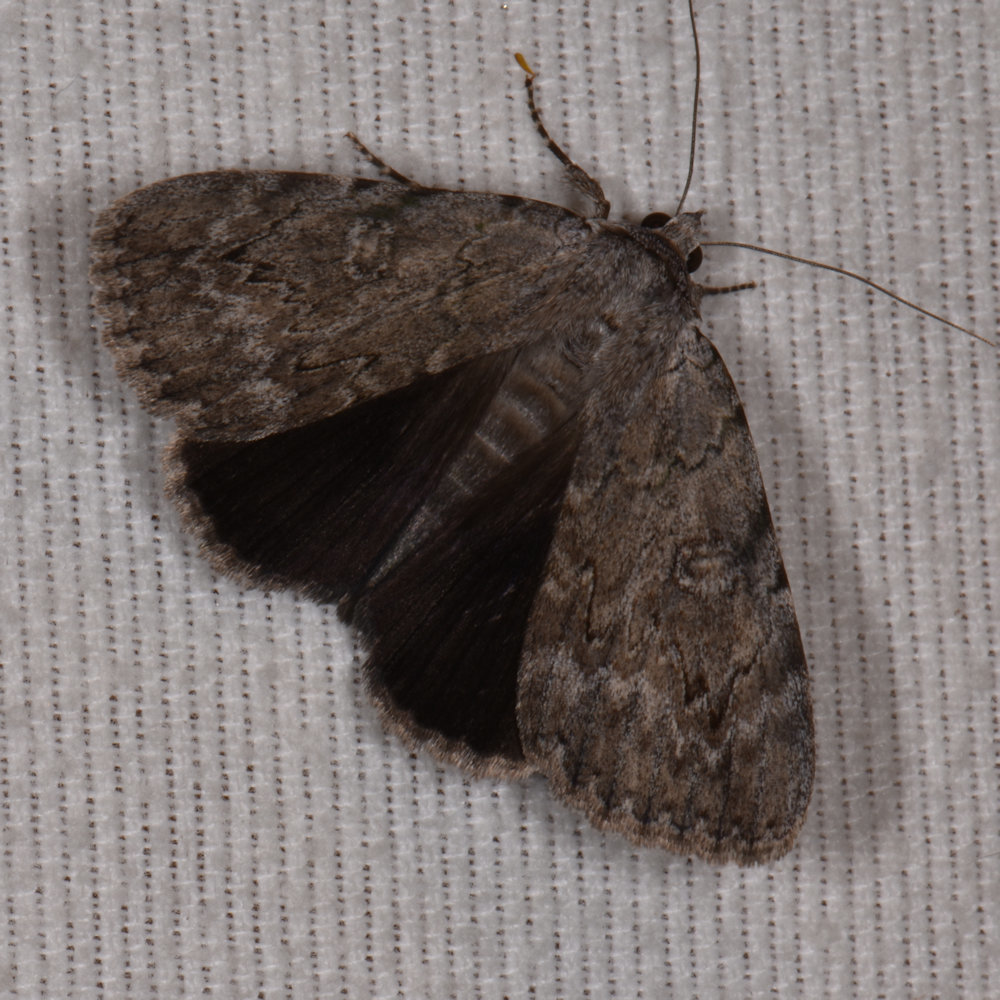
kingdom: Animalia
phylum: Arthropoda
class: Insecta
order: Lepidoptera
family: Erebidae
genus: Catocala
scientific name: Catocala judith
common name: Judith's underwing
